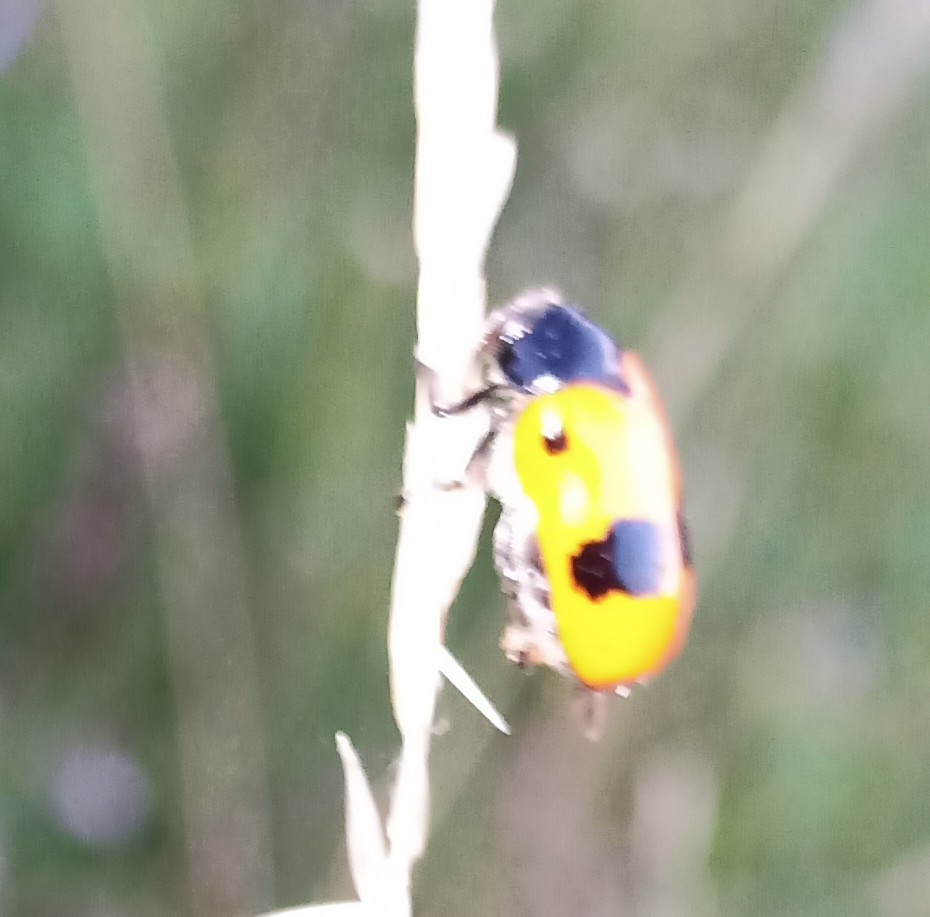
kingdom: Animalia
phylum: Arthropoda
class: Insecta
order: Coleoptera
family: Chrysomelidae
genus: Clytra
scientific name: Clytra laeviuscula
